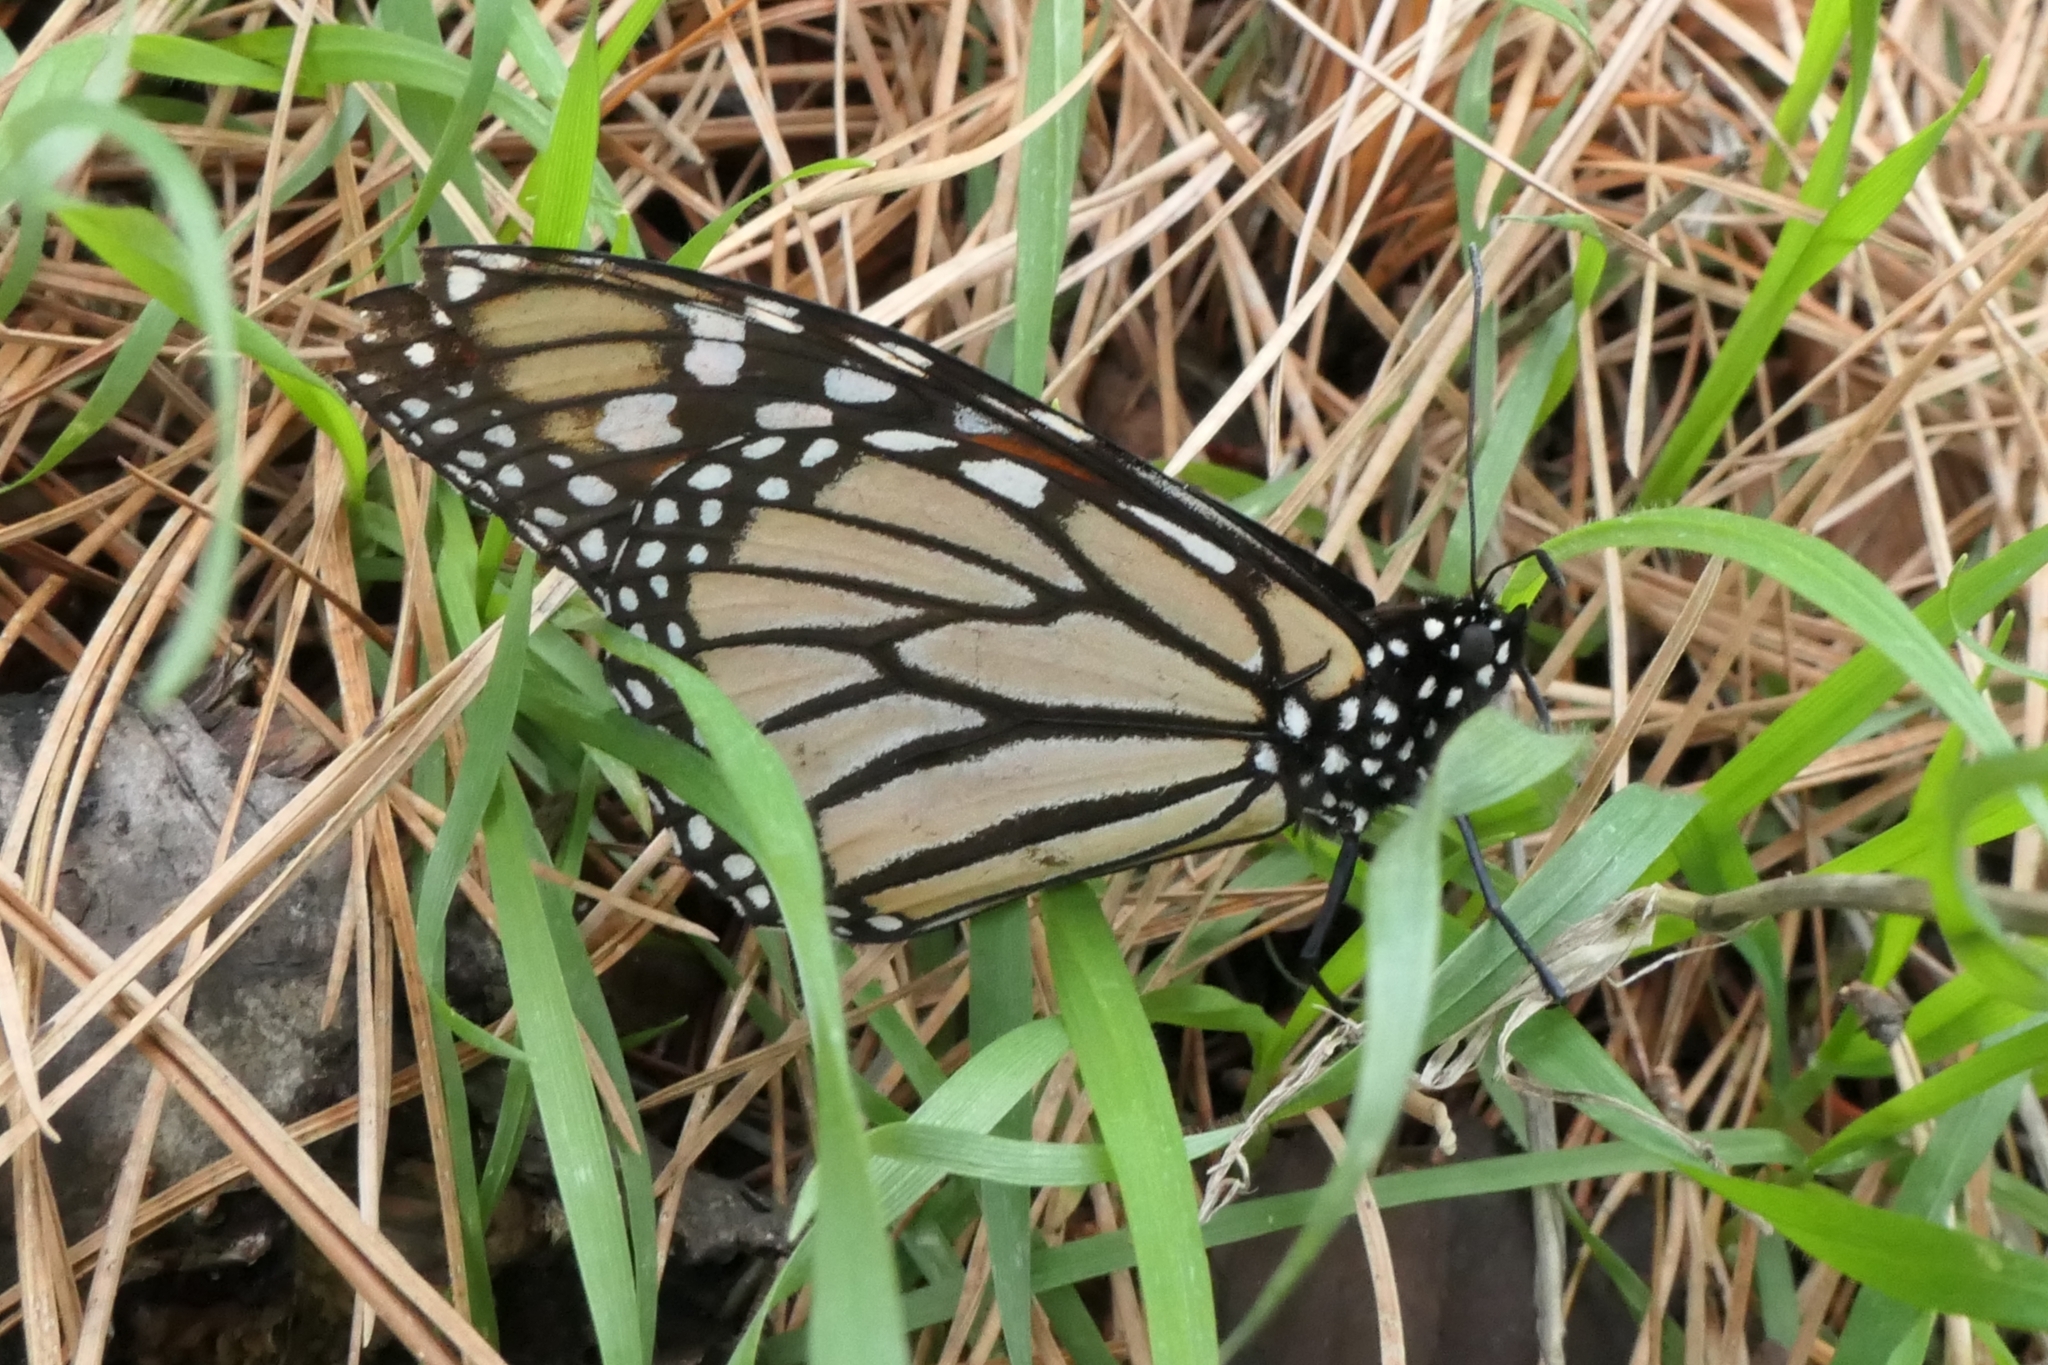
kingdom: Animalia
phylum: Arthropoda
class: Insecta
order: Lepidoptera
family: Nymphalidae
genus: Danaus
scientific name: Danaus plexippus
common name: Monarch
